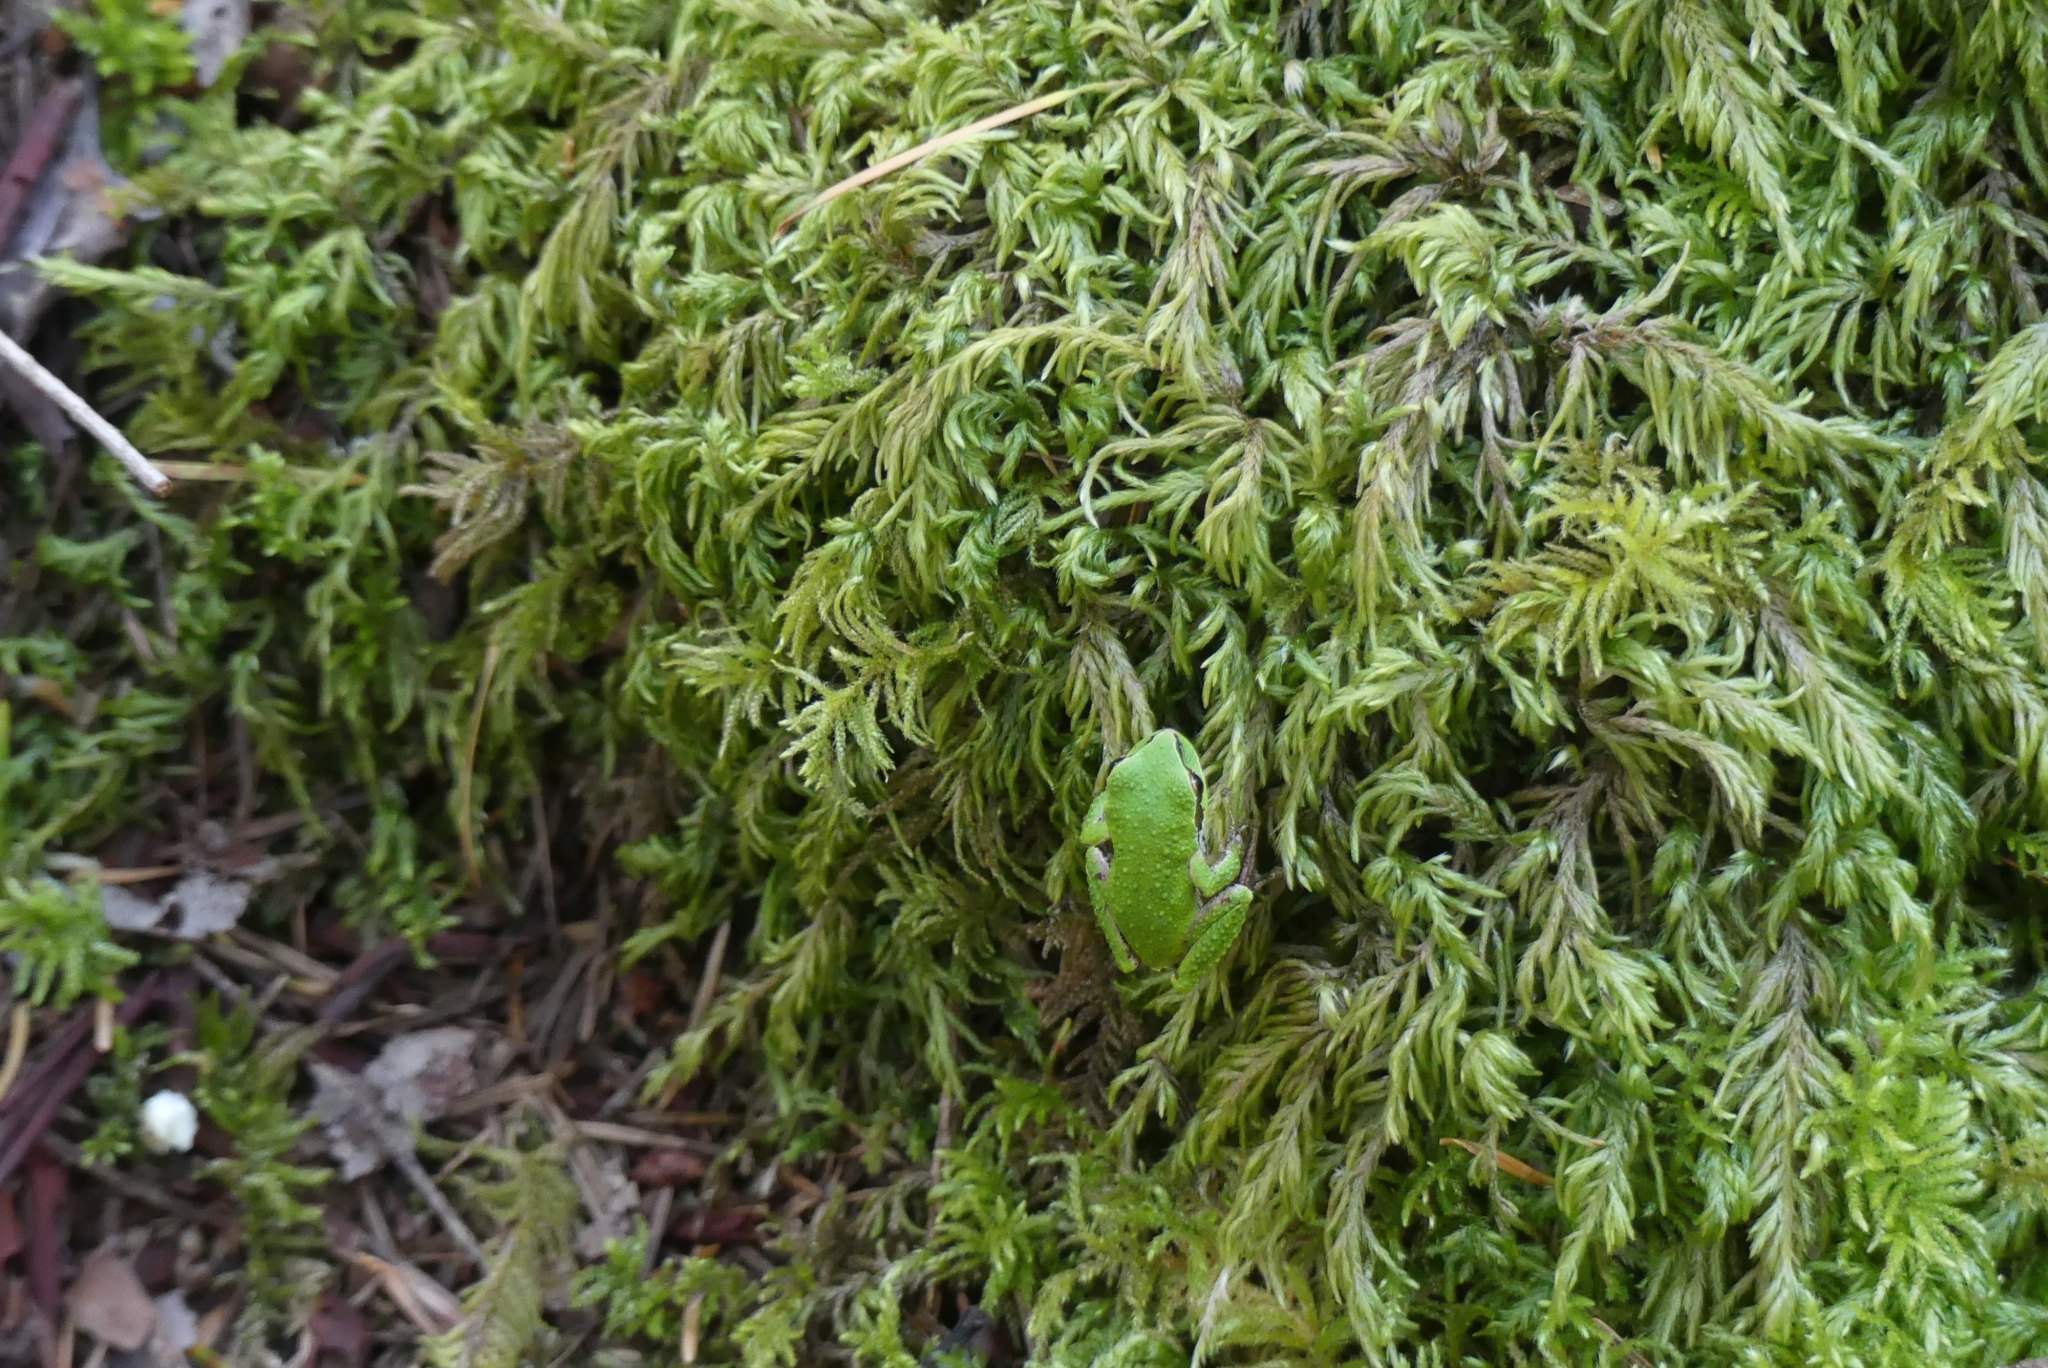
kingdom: Animalia
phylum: Chordata
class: Amphibia
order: Anura
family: Hylidae
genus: Pseudacris
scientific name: Pseudacris regilla
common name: Pacific chorus frog
